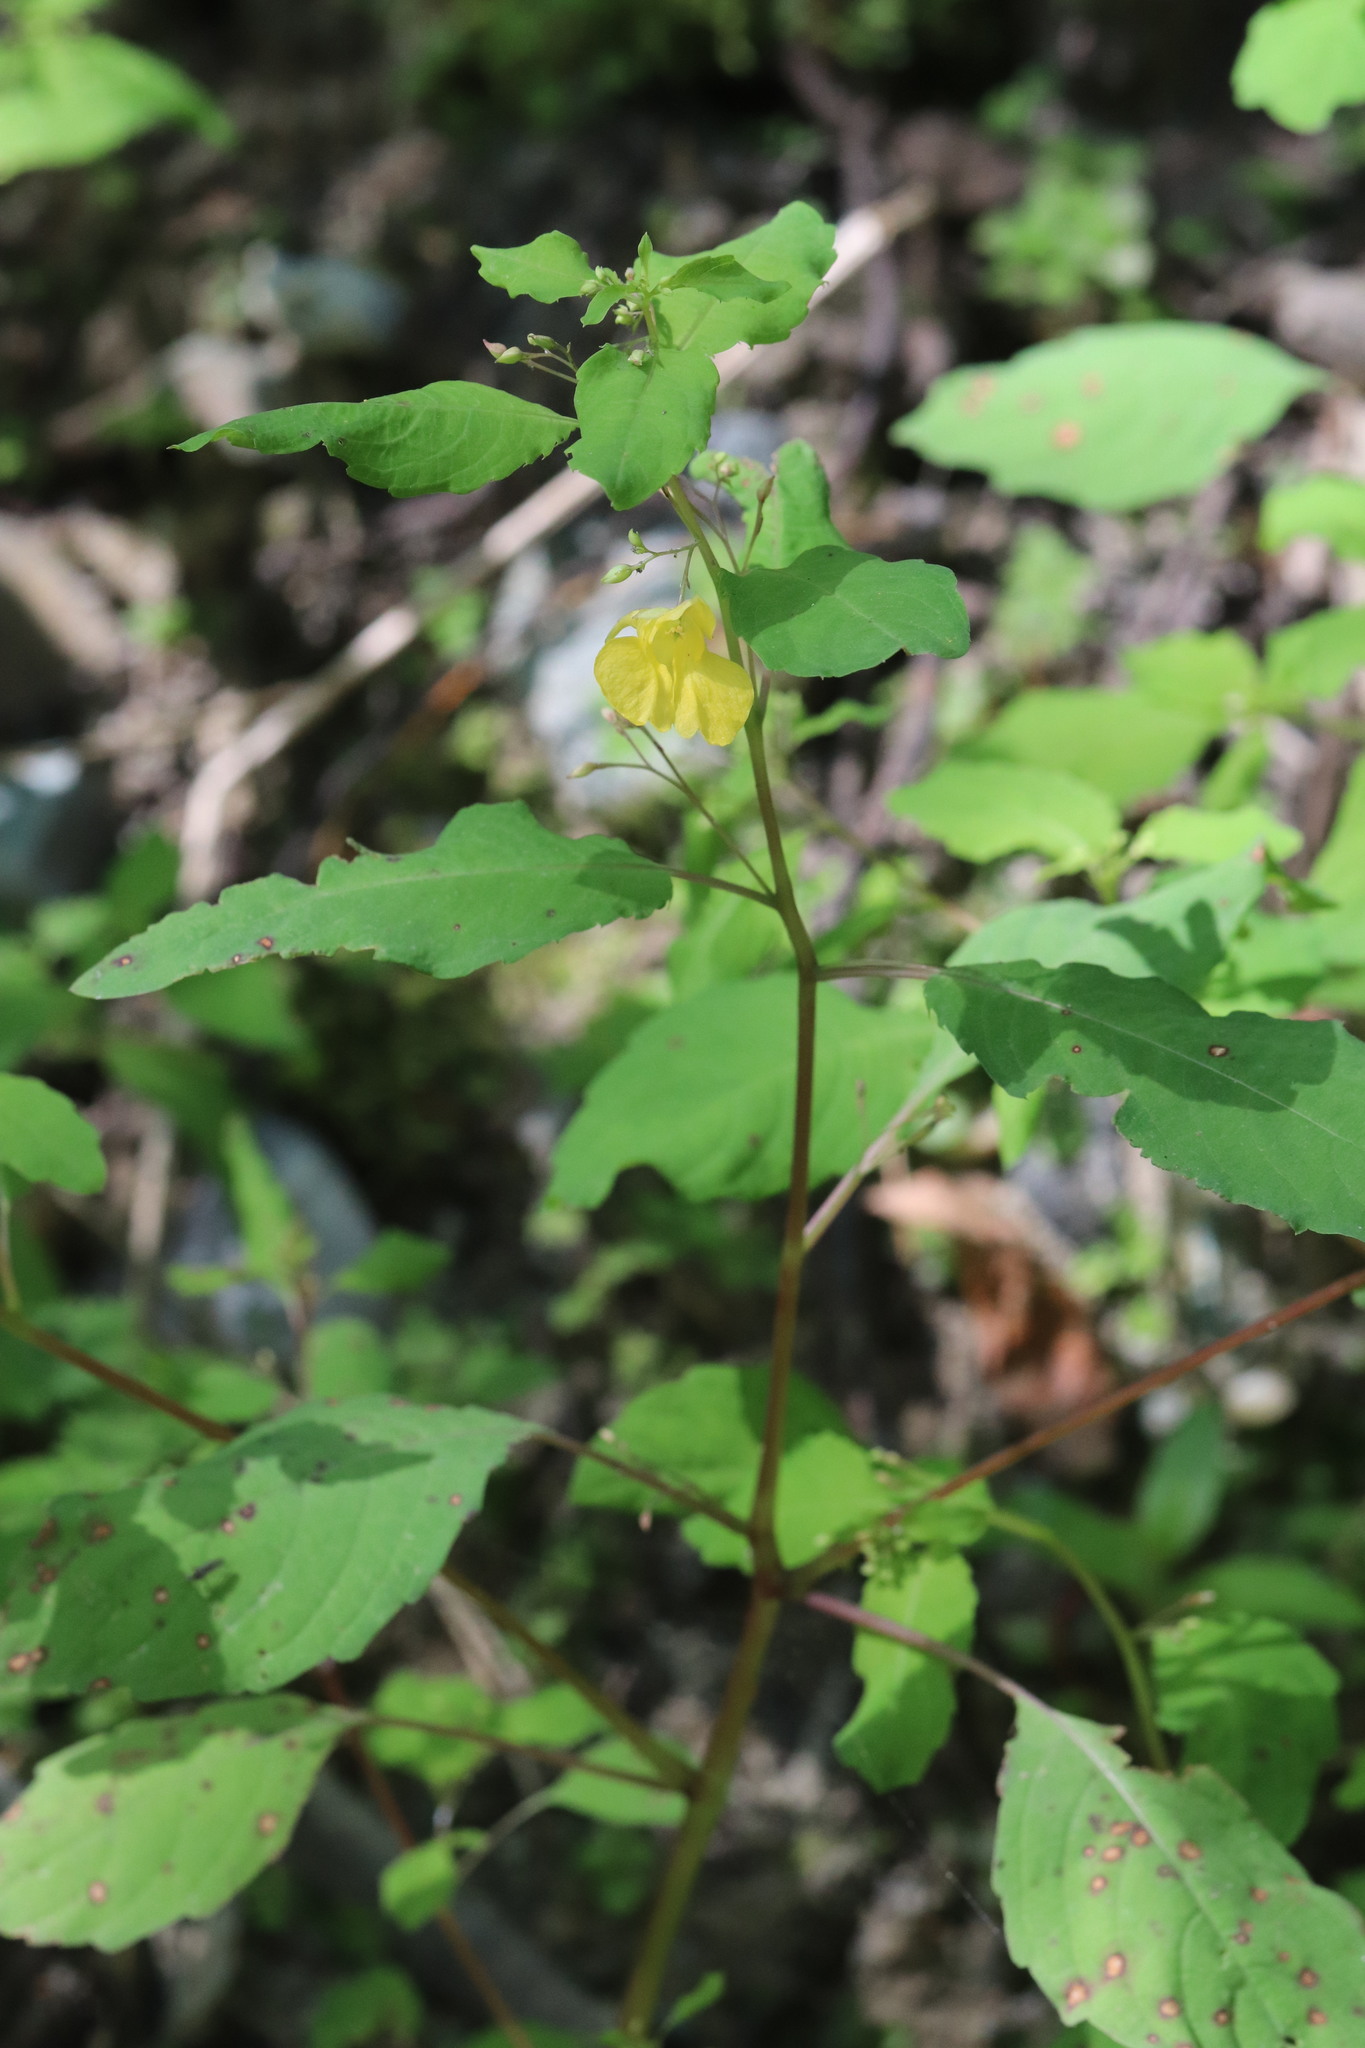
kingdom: Plantae
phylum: Tracheophyta
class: Magnoliopsida
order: Ericales
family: Balsaminaceae
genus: Impatiens
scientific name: Impatiens noli-tangere
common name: Touch-me-not balsam
